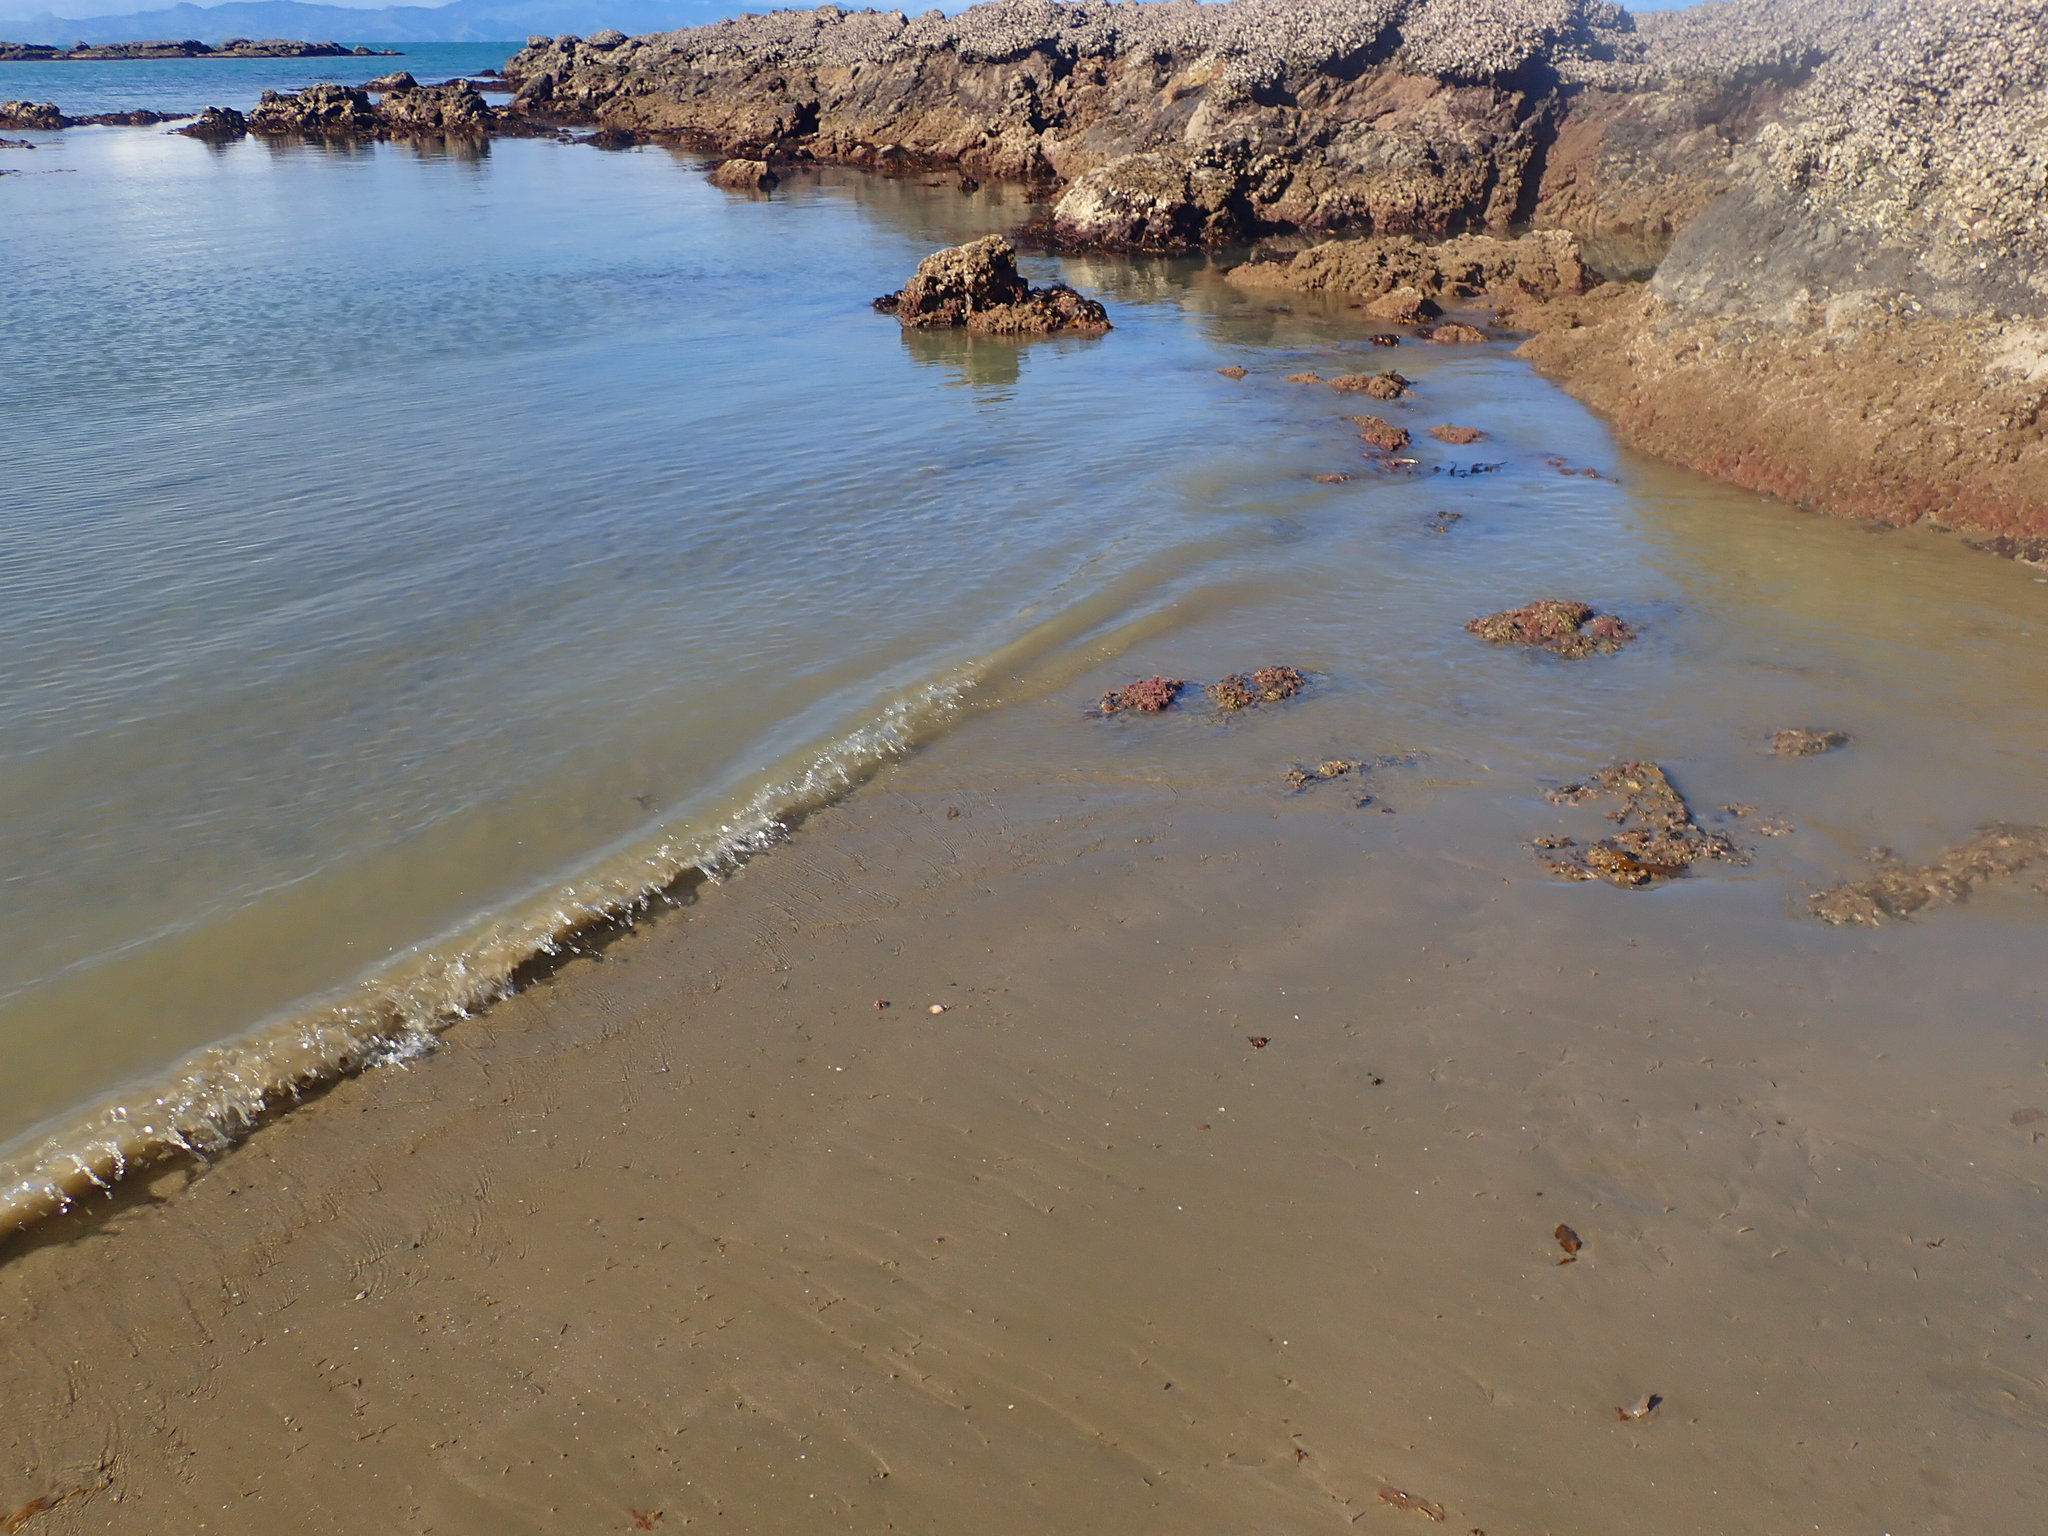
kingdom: Animalia
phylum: Echinodermata
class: Echinoidea
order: Clypeasteroida
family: Clypeasteridae
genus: Fellaster
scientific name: Fellaster zelandiae
